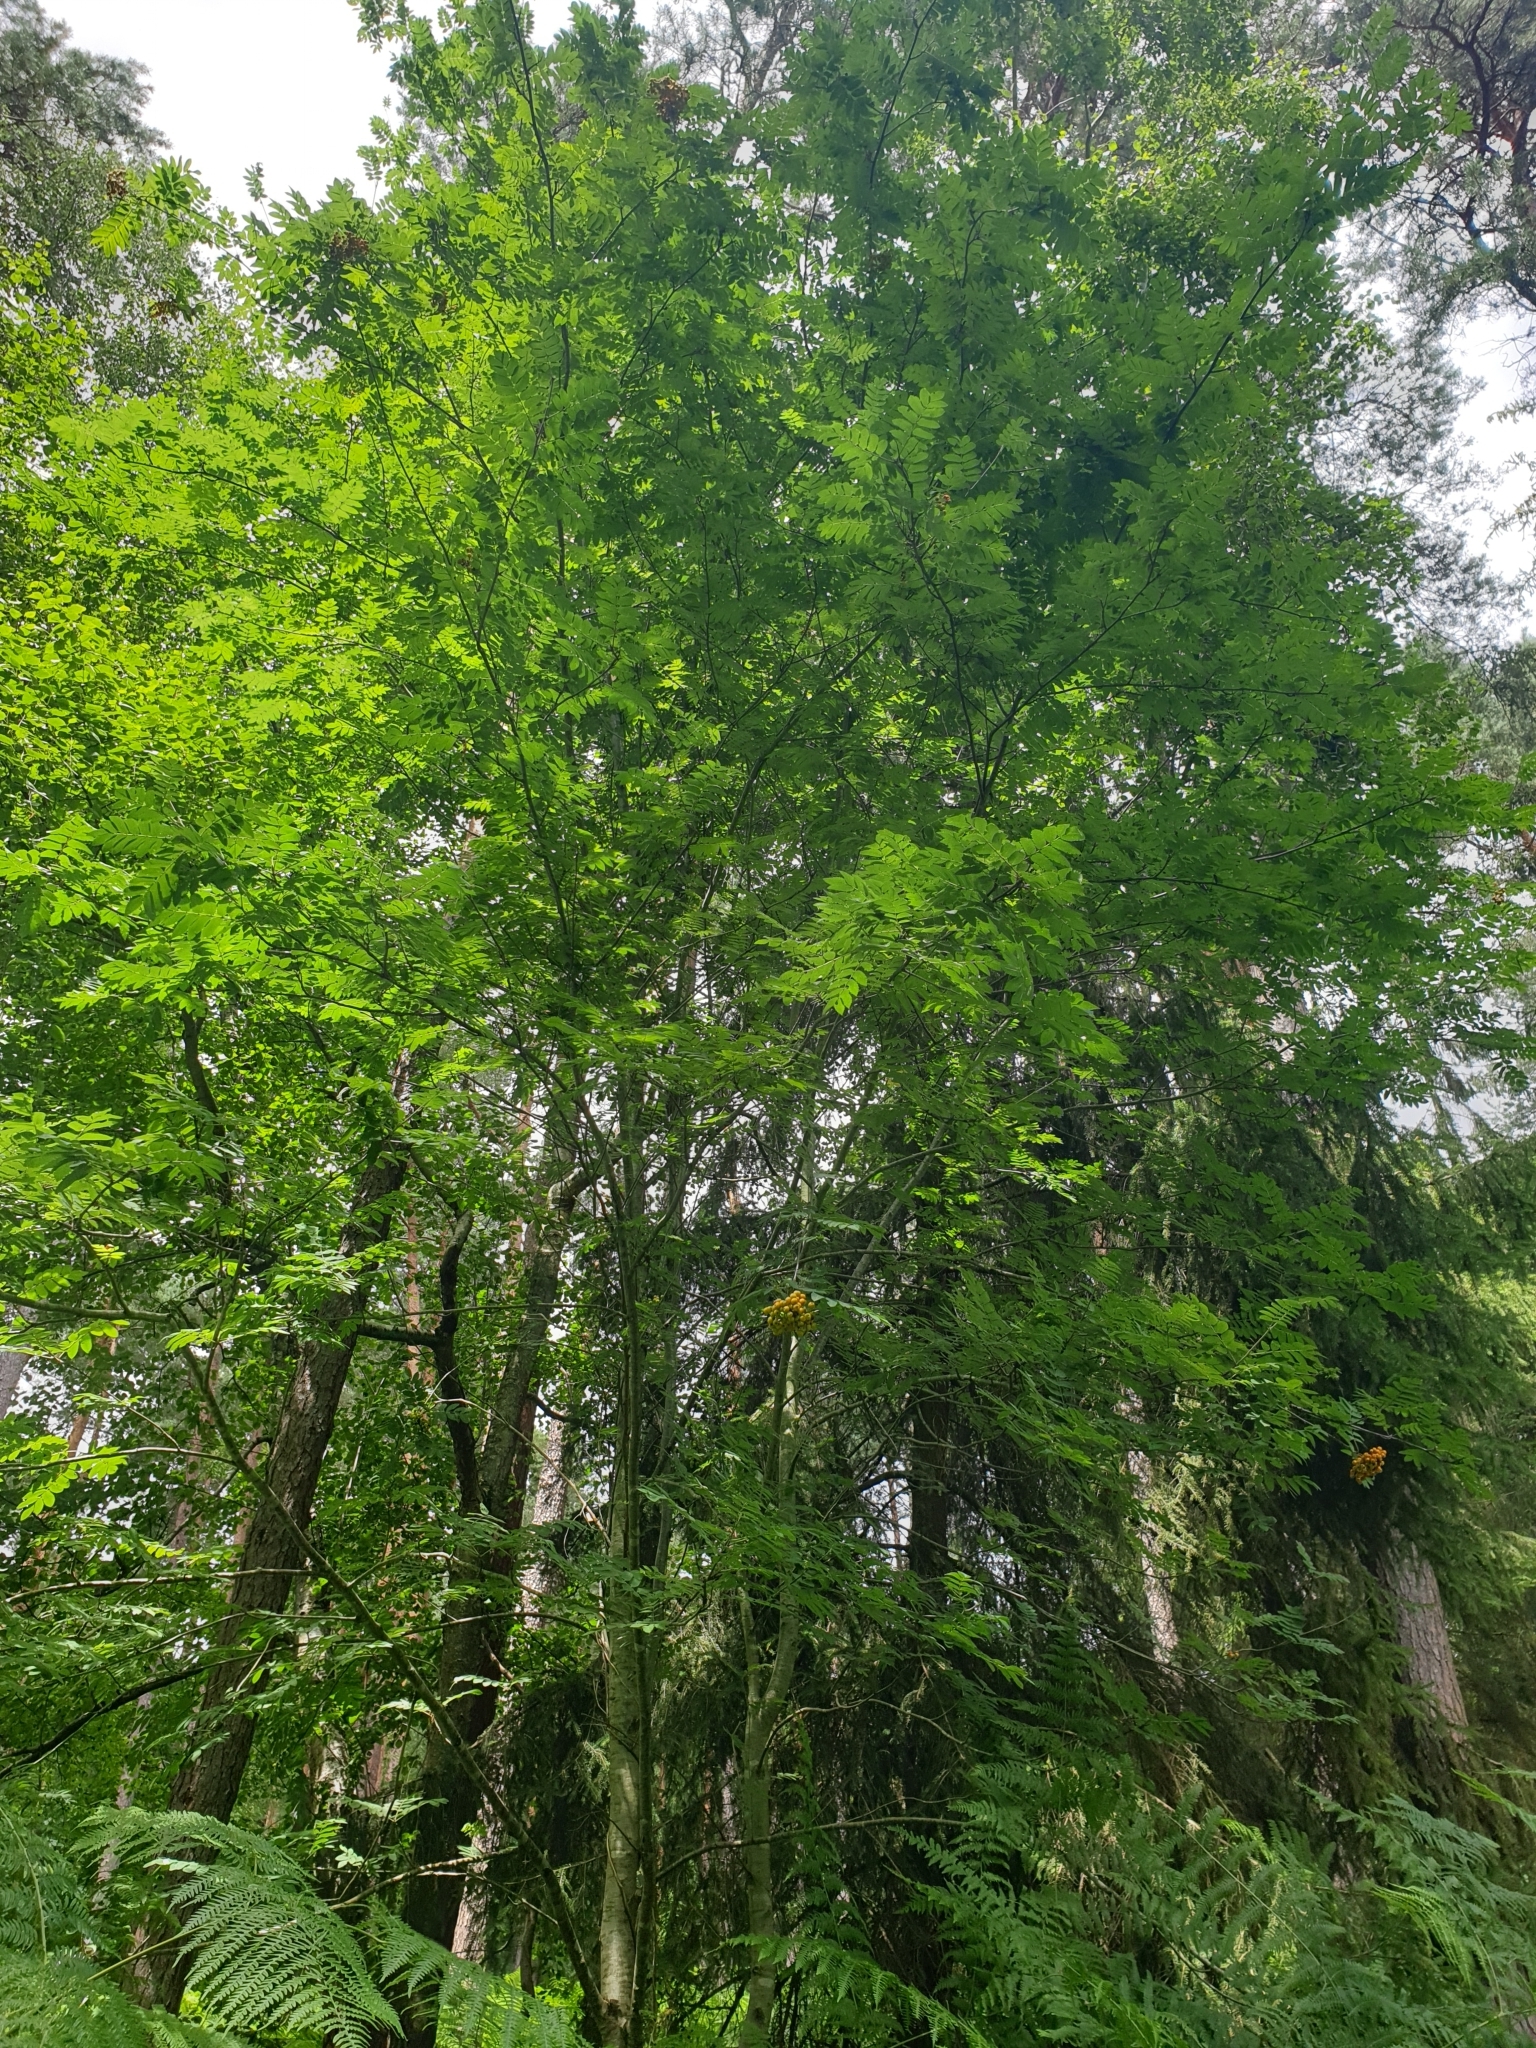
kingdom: Plantae
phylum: Tracheophyta
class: Magnoliopsida
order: Rosales
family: Rosaceae
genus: Sorbus
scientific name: Sorbus aucuparia
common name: Rowan
